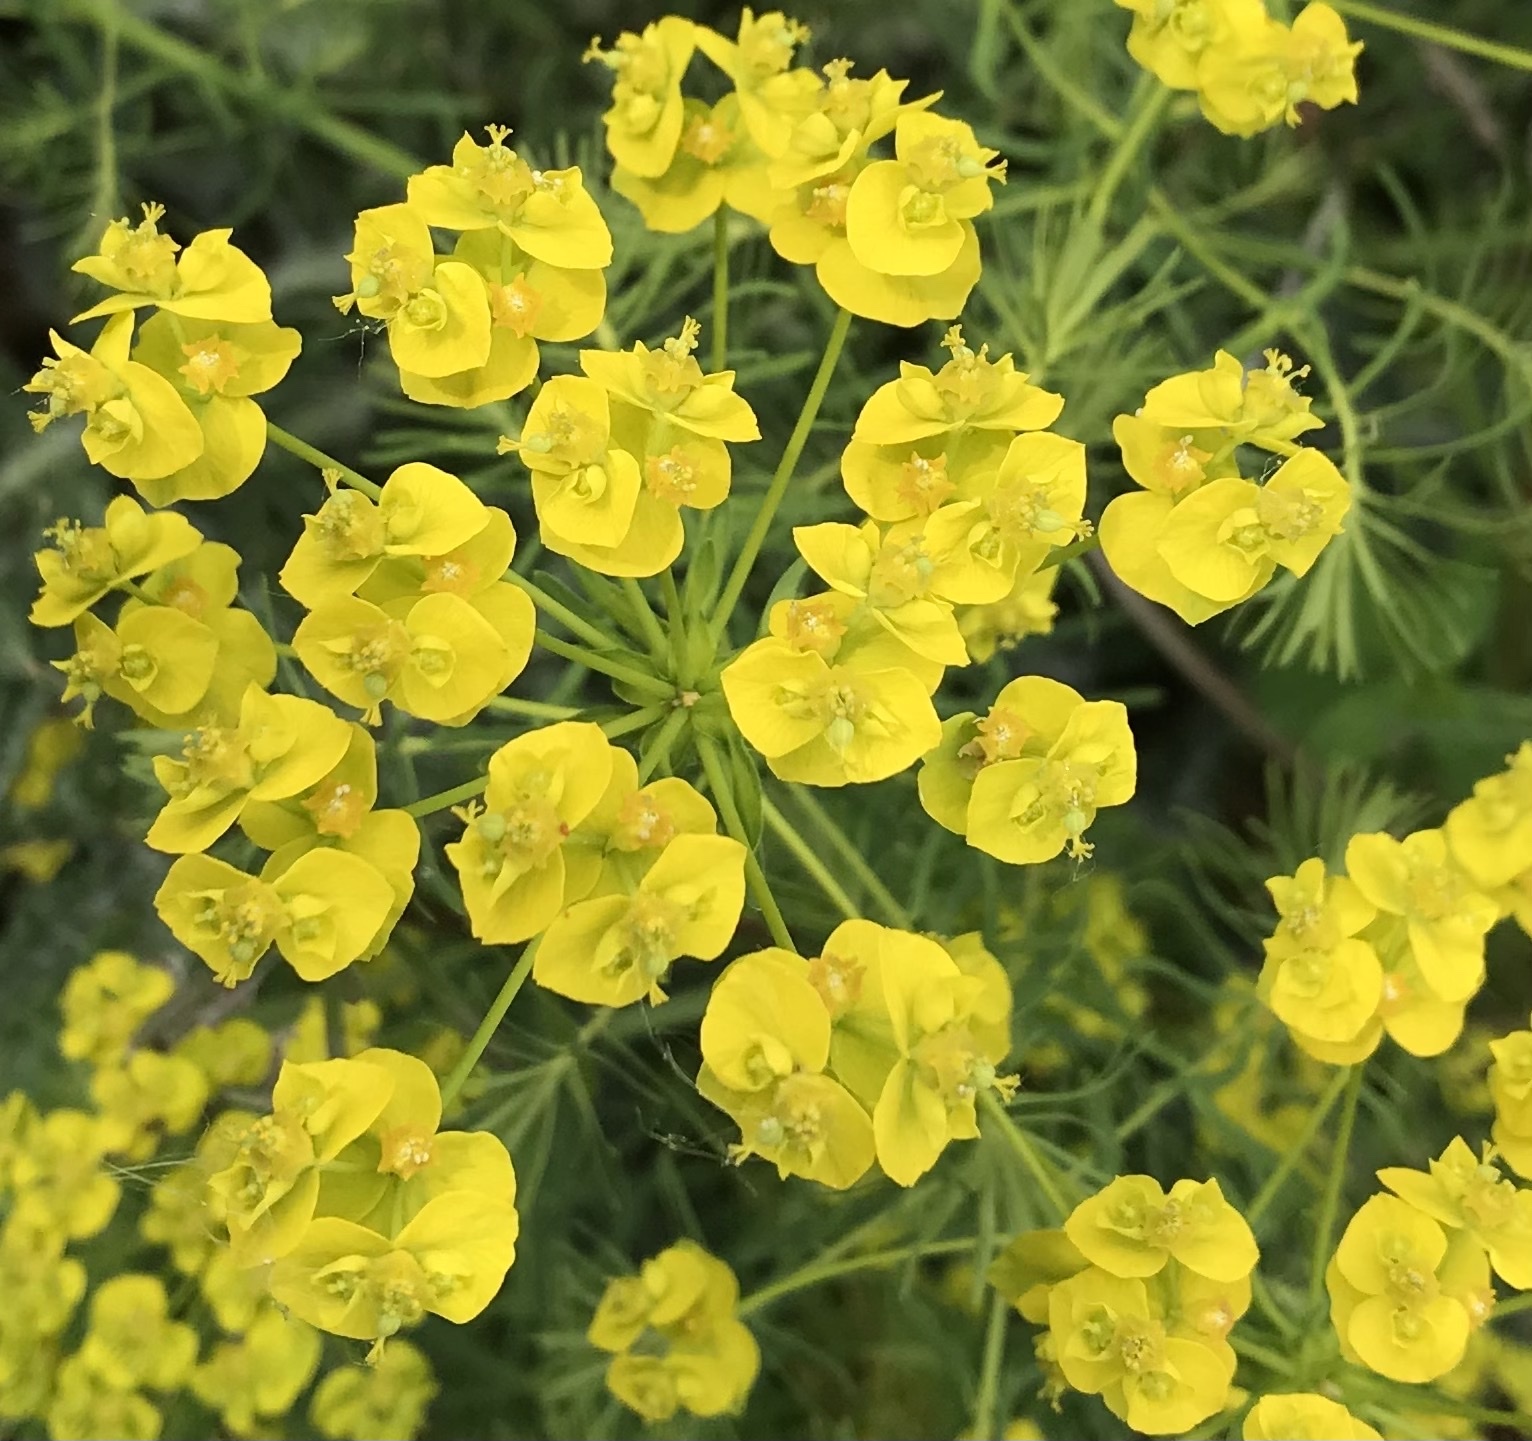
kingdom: Plantae
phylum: Tracheophyta
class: Magnoliopsida
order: Malpighiales
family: Euphorbiaceae
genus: Euphorbia
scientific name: Euphorbia cyparissias
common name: Cypress spurge
